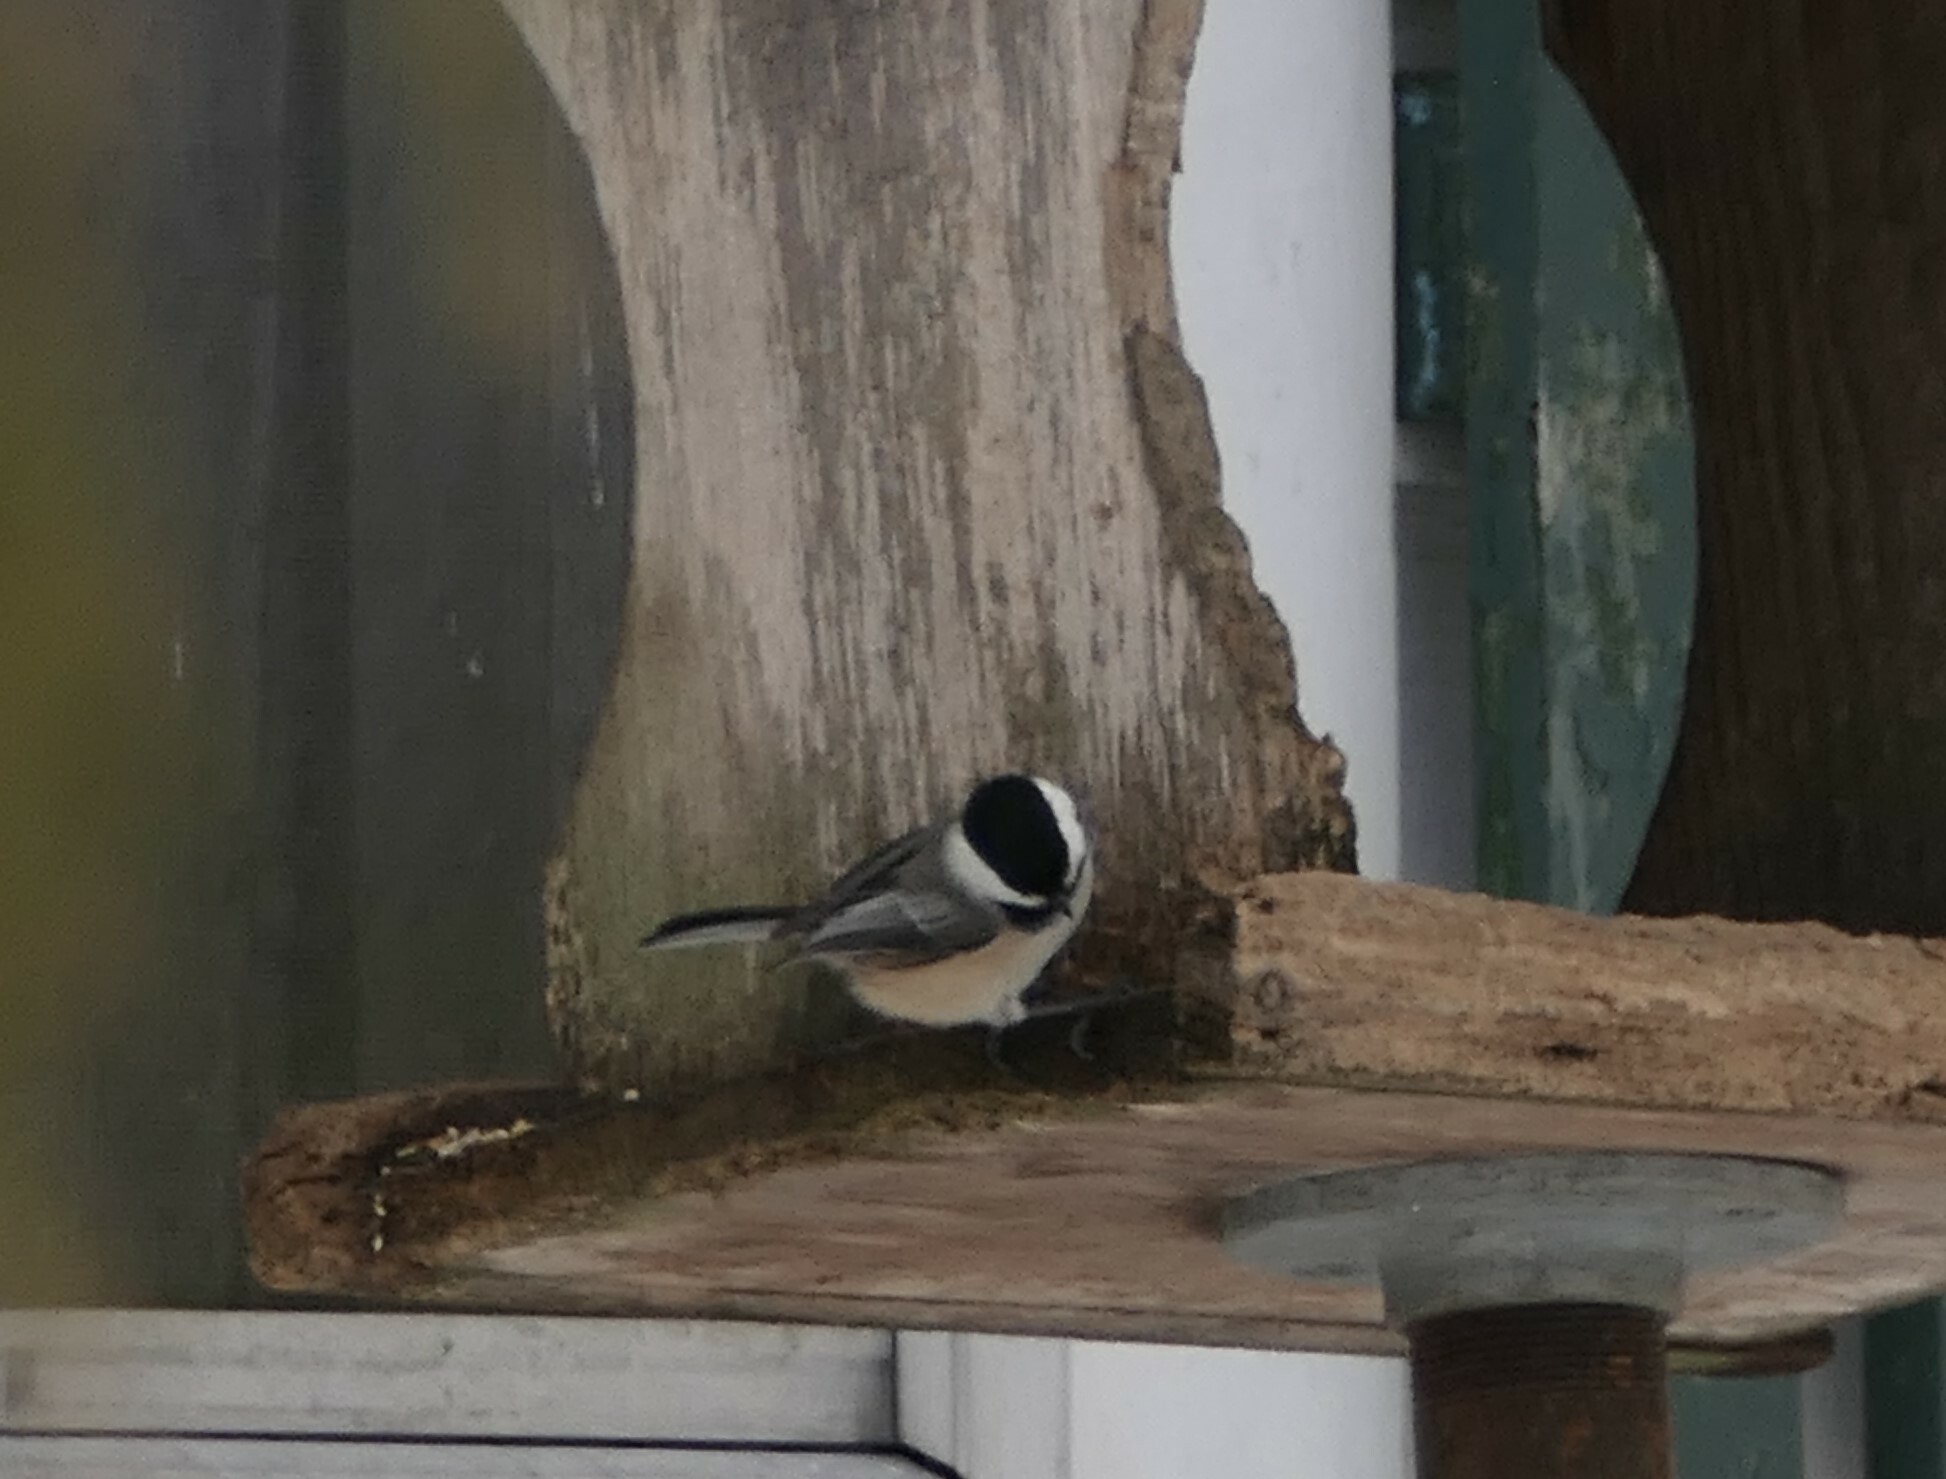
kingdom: Animalia
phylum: Chordata
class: Aves
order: Passeriformes
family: Paridae
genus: Poecile
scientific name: Poecile atricapillus
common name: Black-capped chickadee
